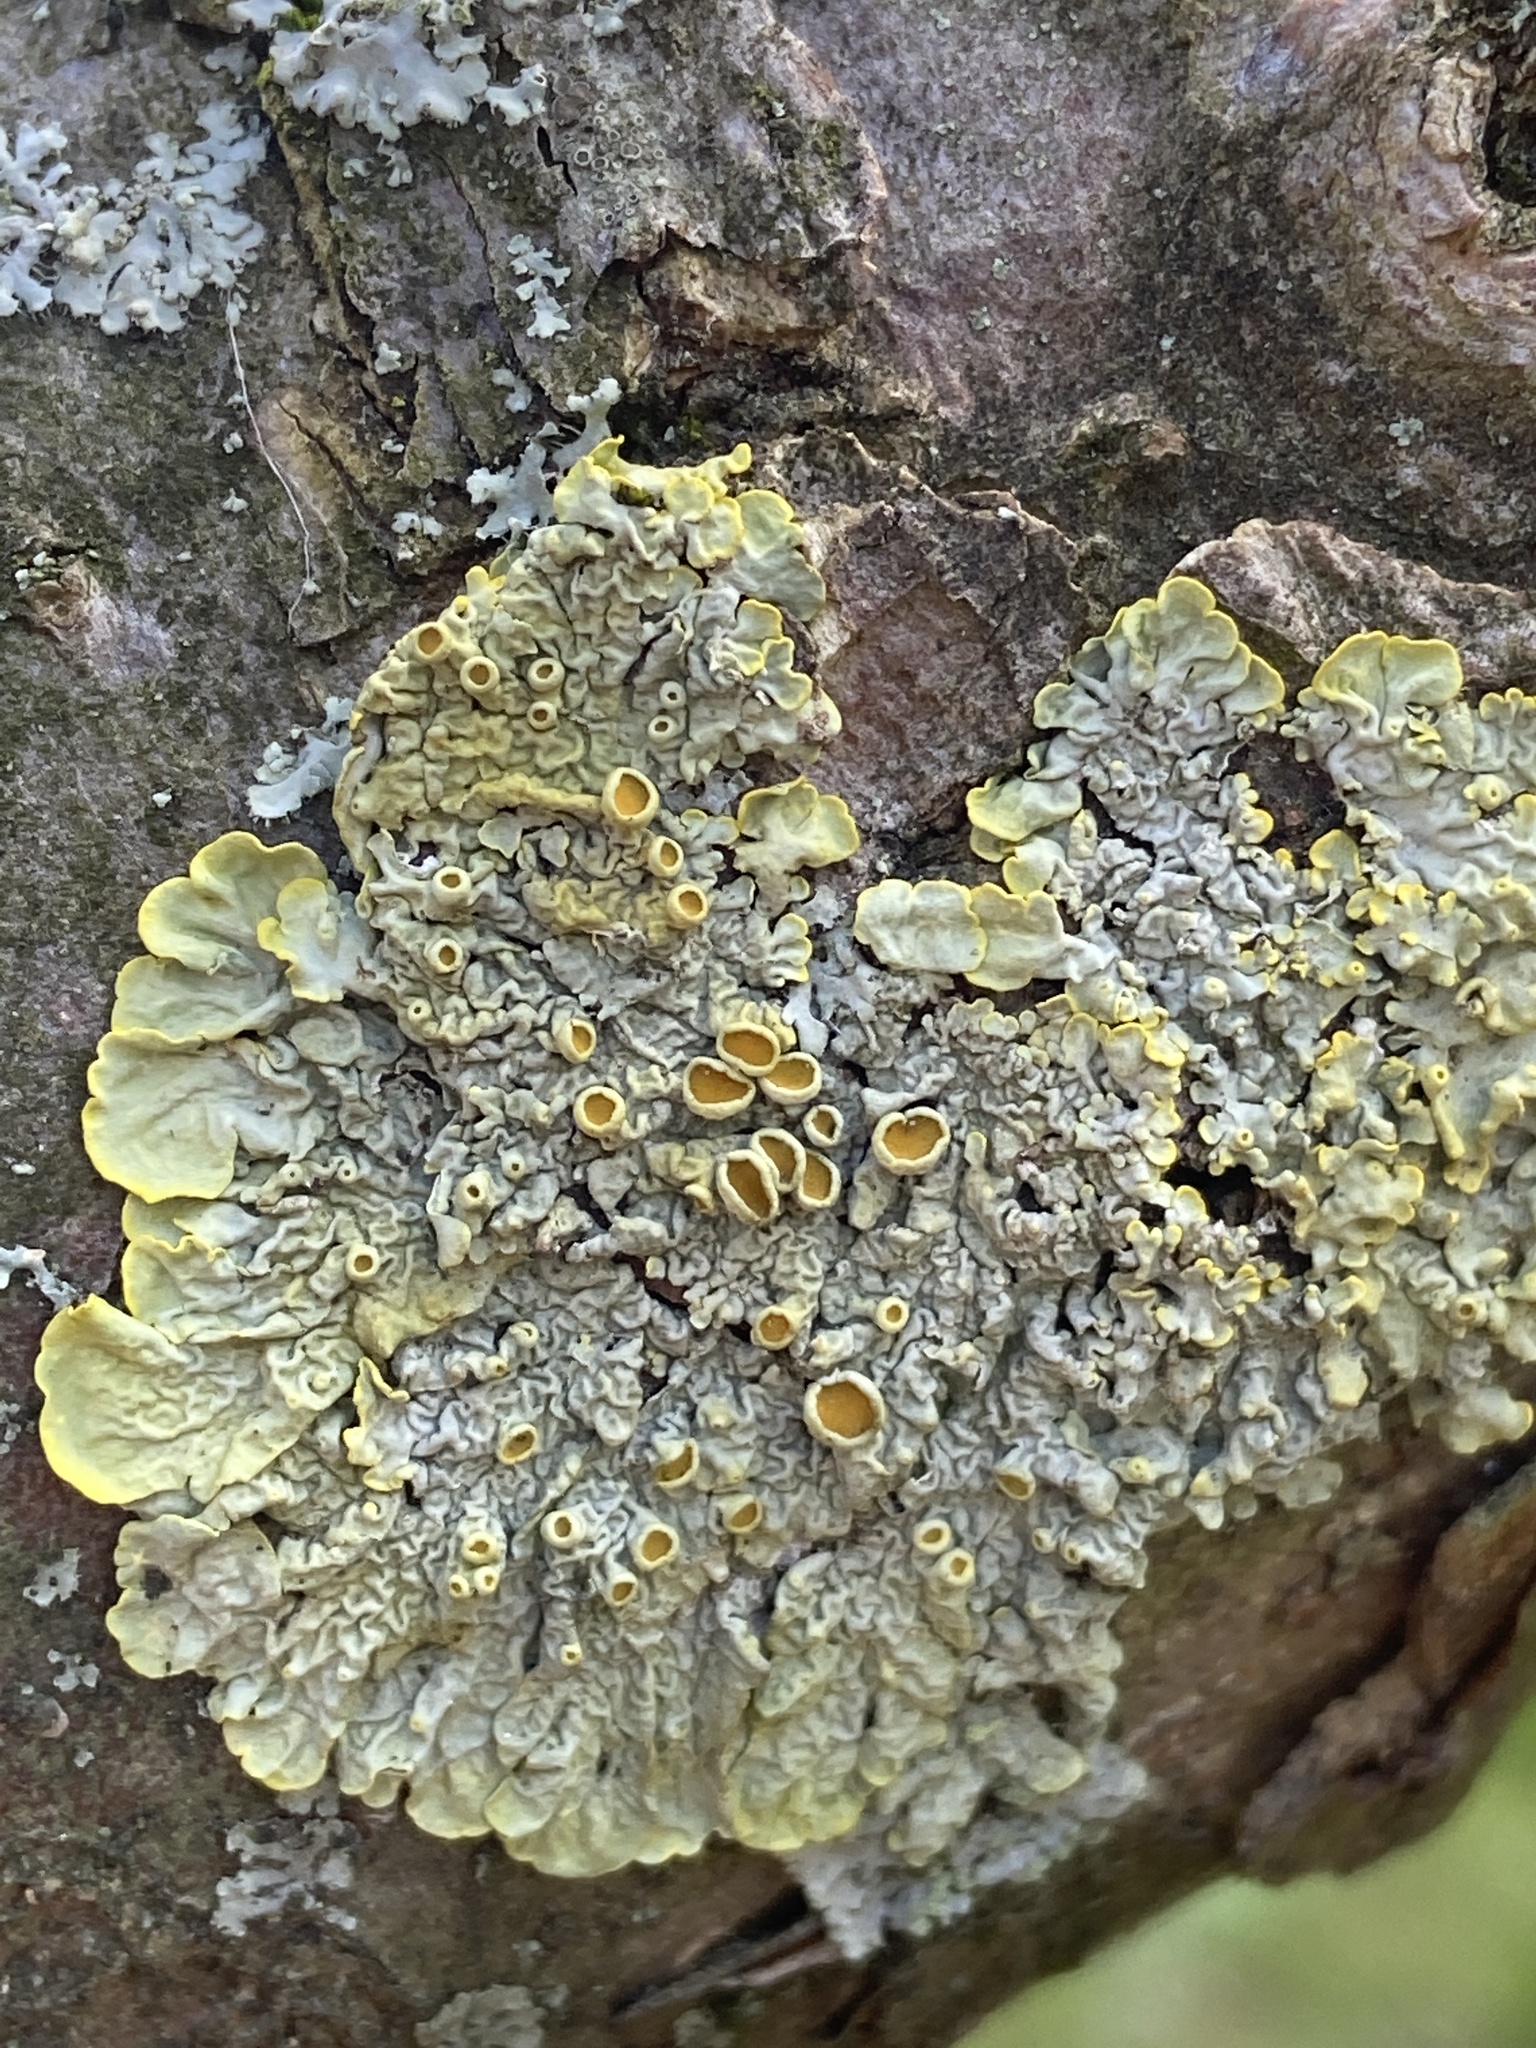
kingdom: Fungi
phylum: Ascomycota
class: Lecanoromycetes
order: Teloschistales
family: Teloschistaceae
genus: Xanthoria
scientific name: Xanthoria parietina
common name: Common orange lichen
